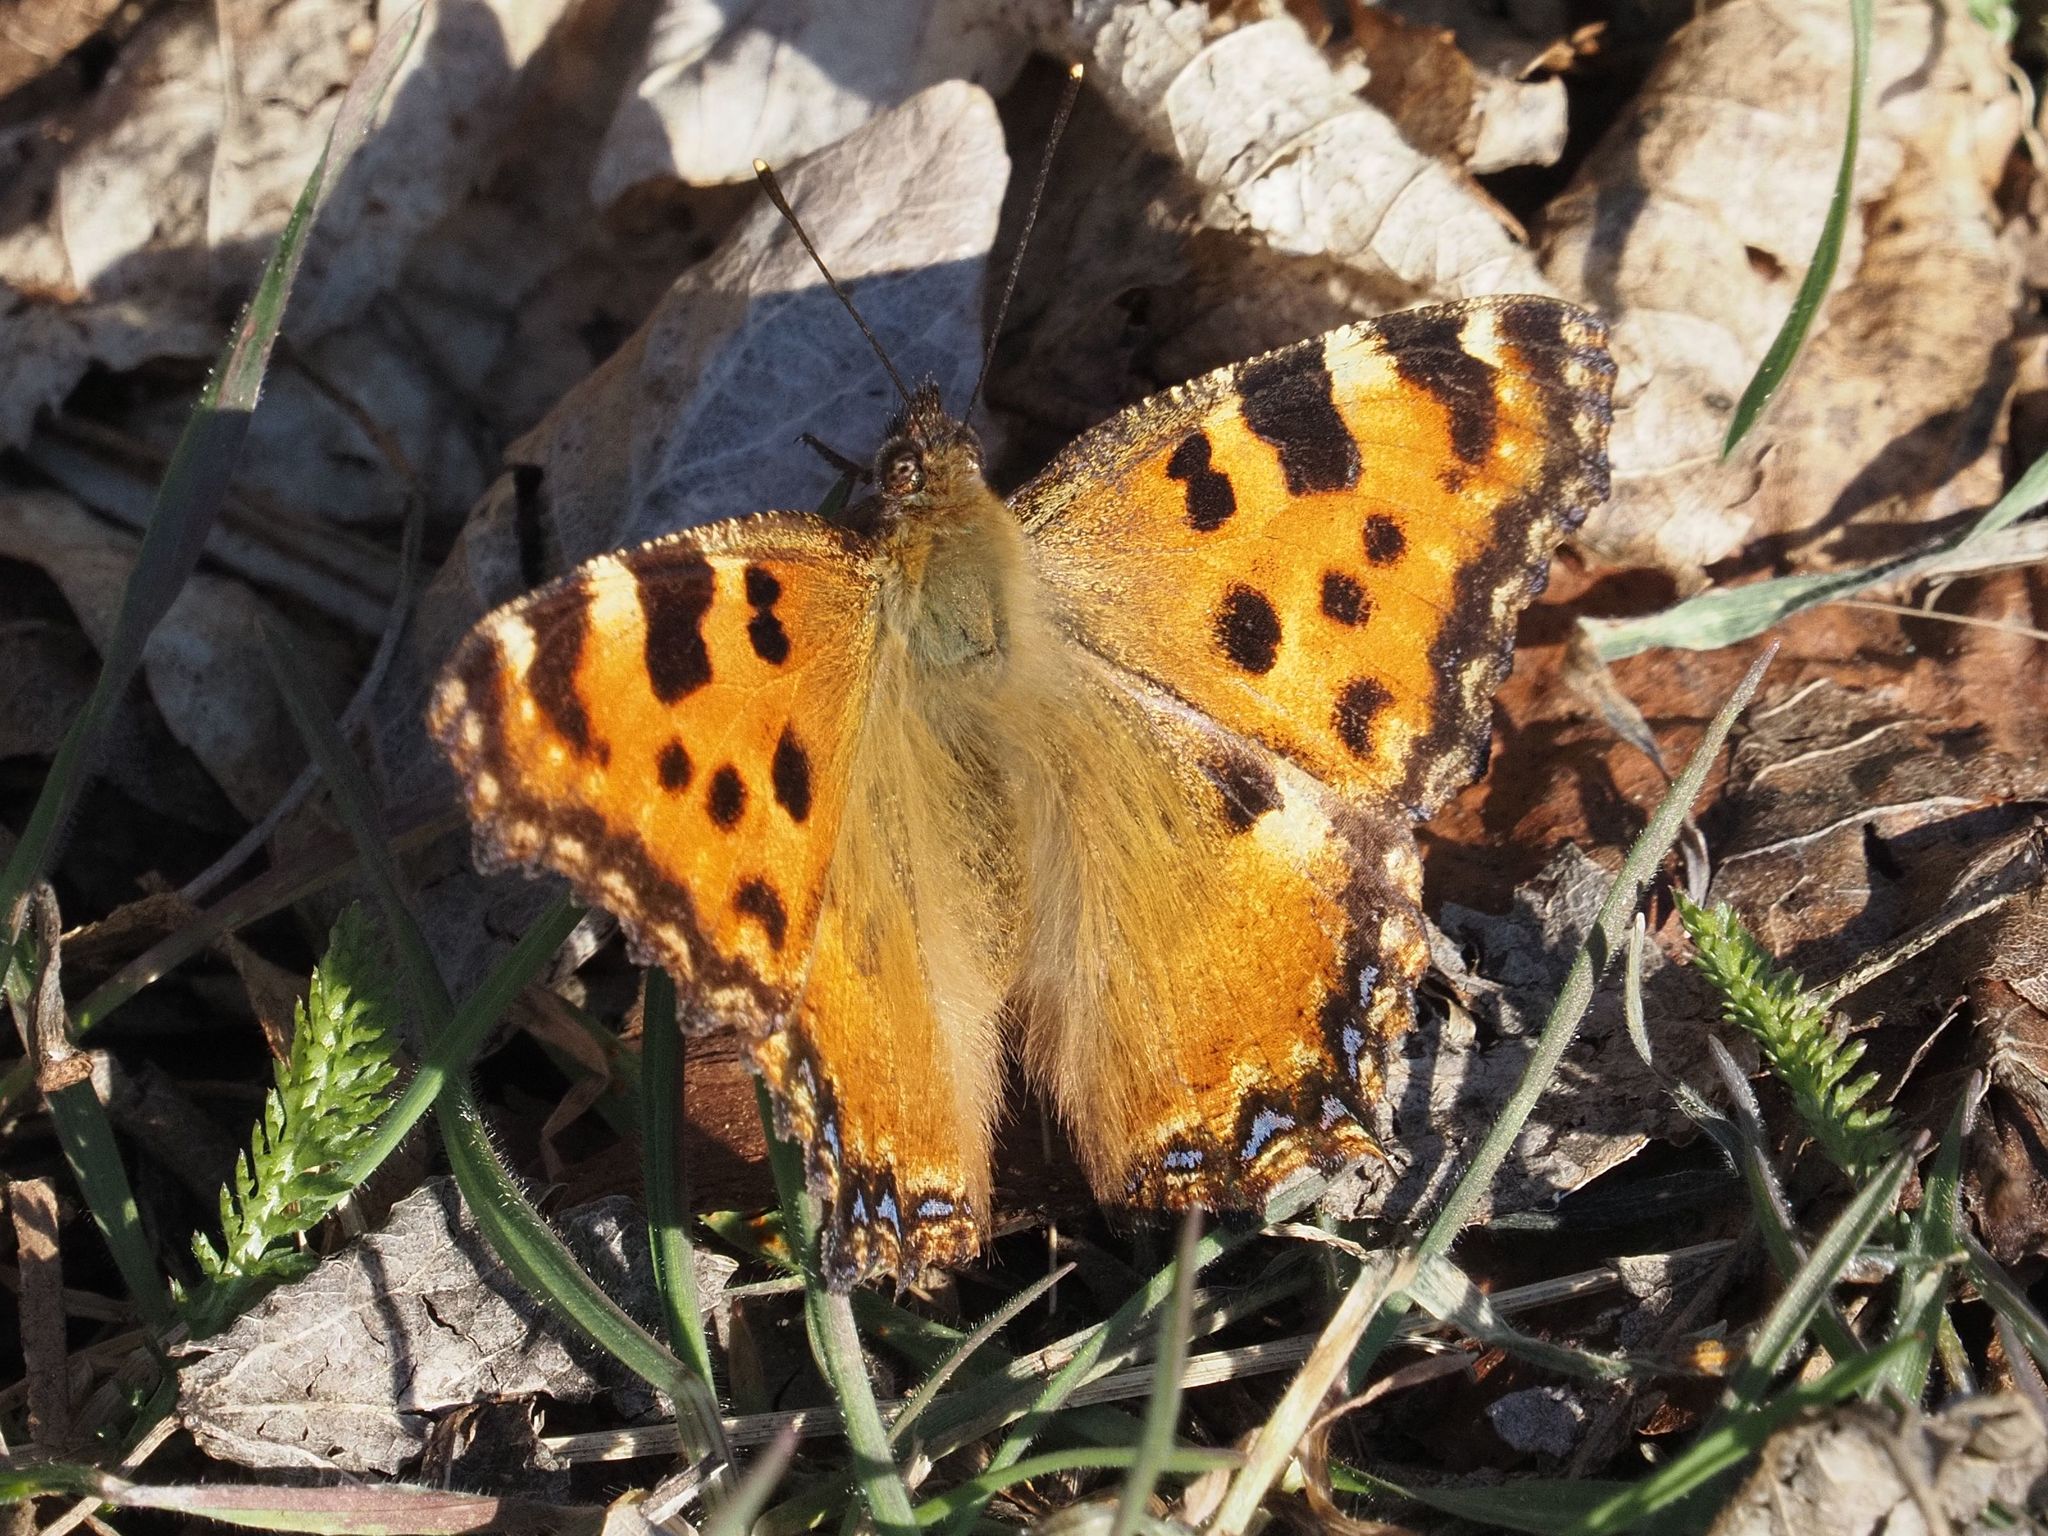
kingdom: Animalia
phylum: Arthropoda
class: Insecta
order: Lepidoptera
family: Nymphalidae
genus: Nymphalis
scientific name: Nymphalis polychloros
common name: Large tortoiseshell
